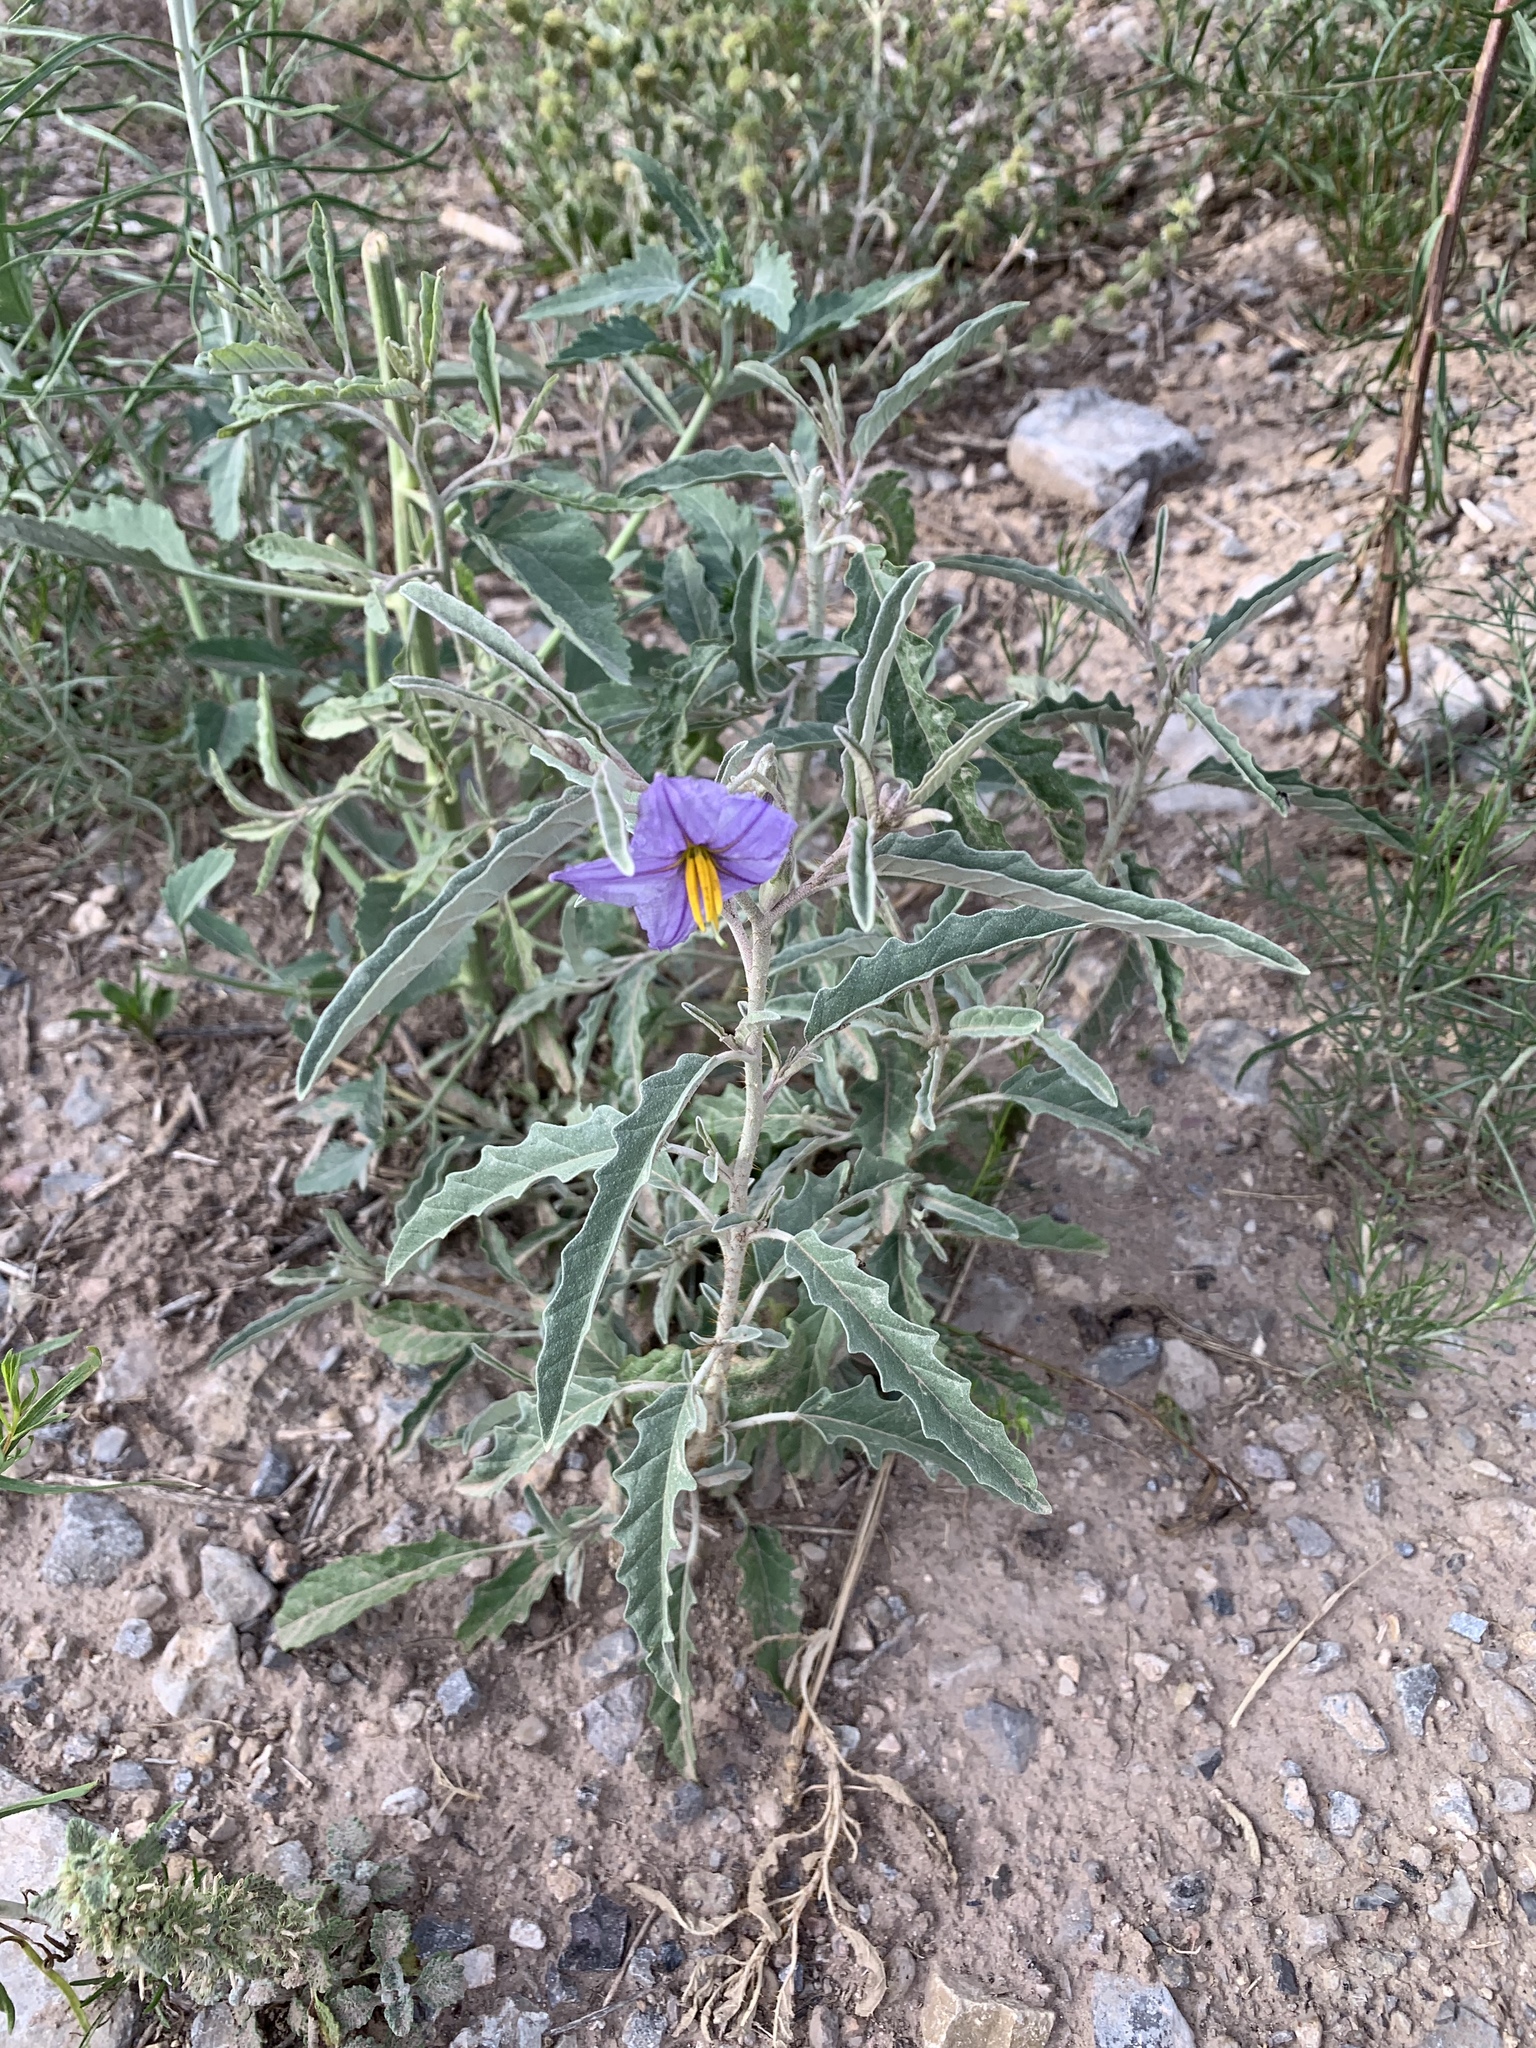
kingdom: Plantae
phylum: Tracheophyta
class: Magnoliopsida
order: Solanales
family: Solanaceae
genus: Solanum
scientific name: Solanum elaeagnifolium
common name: Silverleaf nightshade
